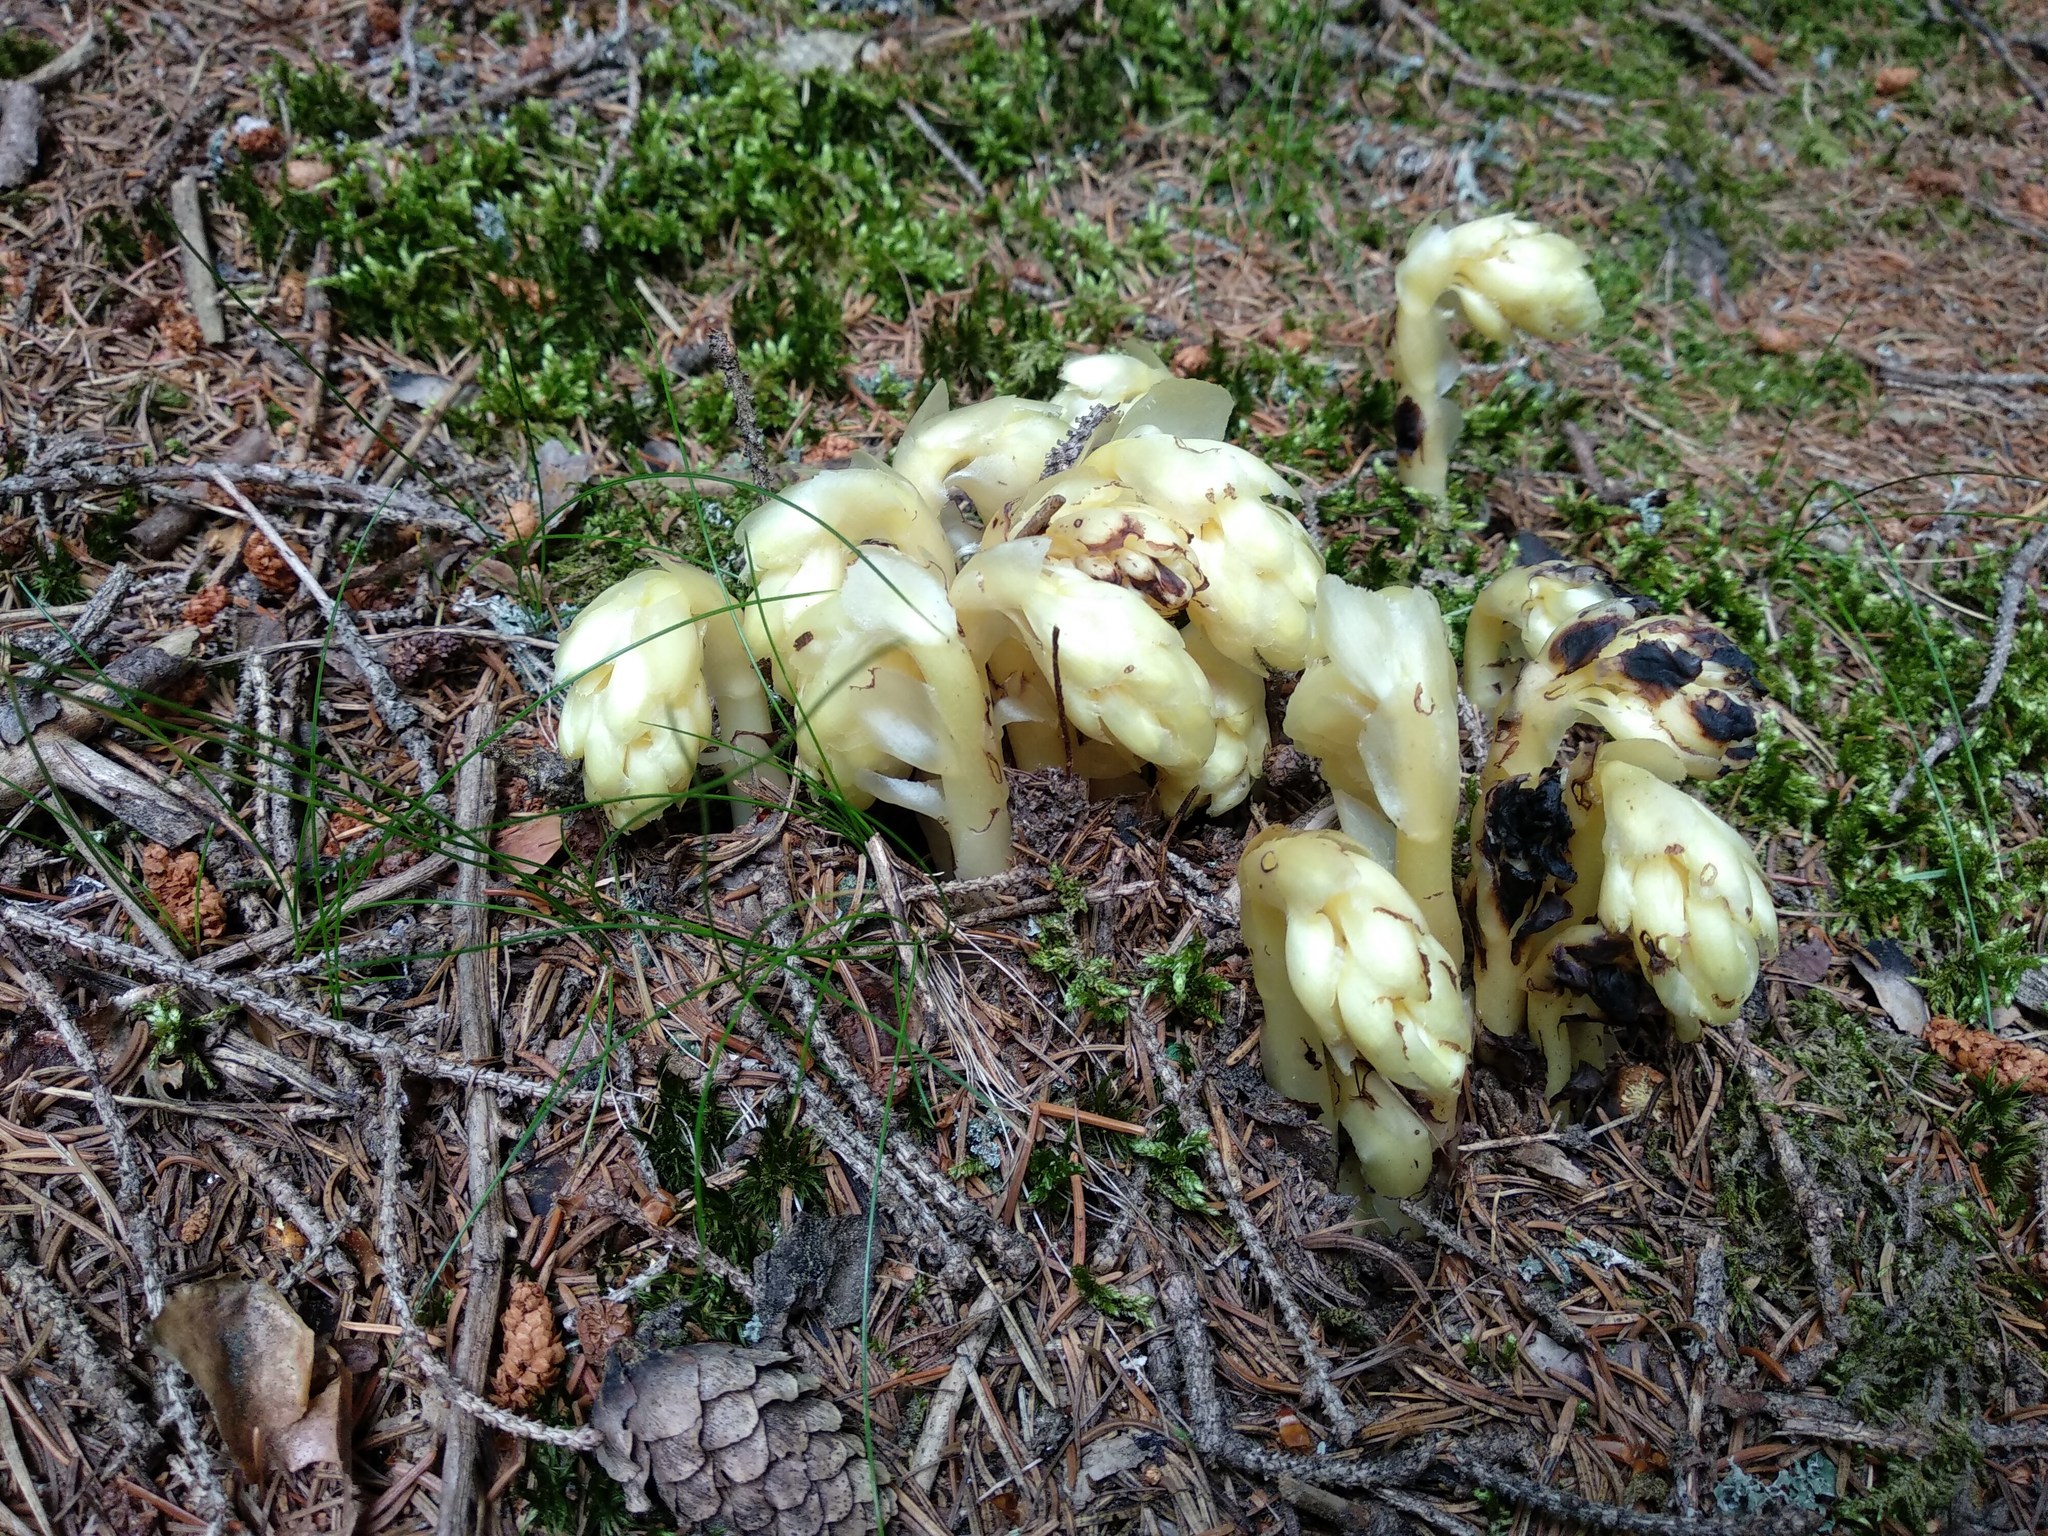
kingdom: Plantae
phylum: Tracheophyta
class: Magnoliopsida
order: Ericales
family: Ericaceae
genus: Hypopitys
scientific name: Hypopitys monotropa
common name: Yellow bird's-nest
